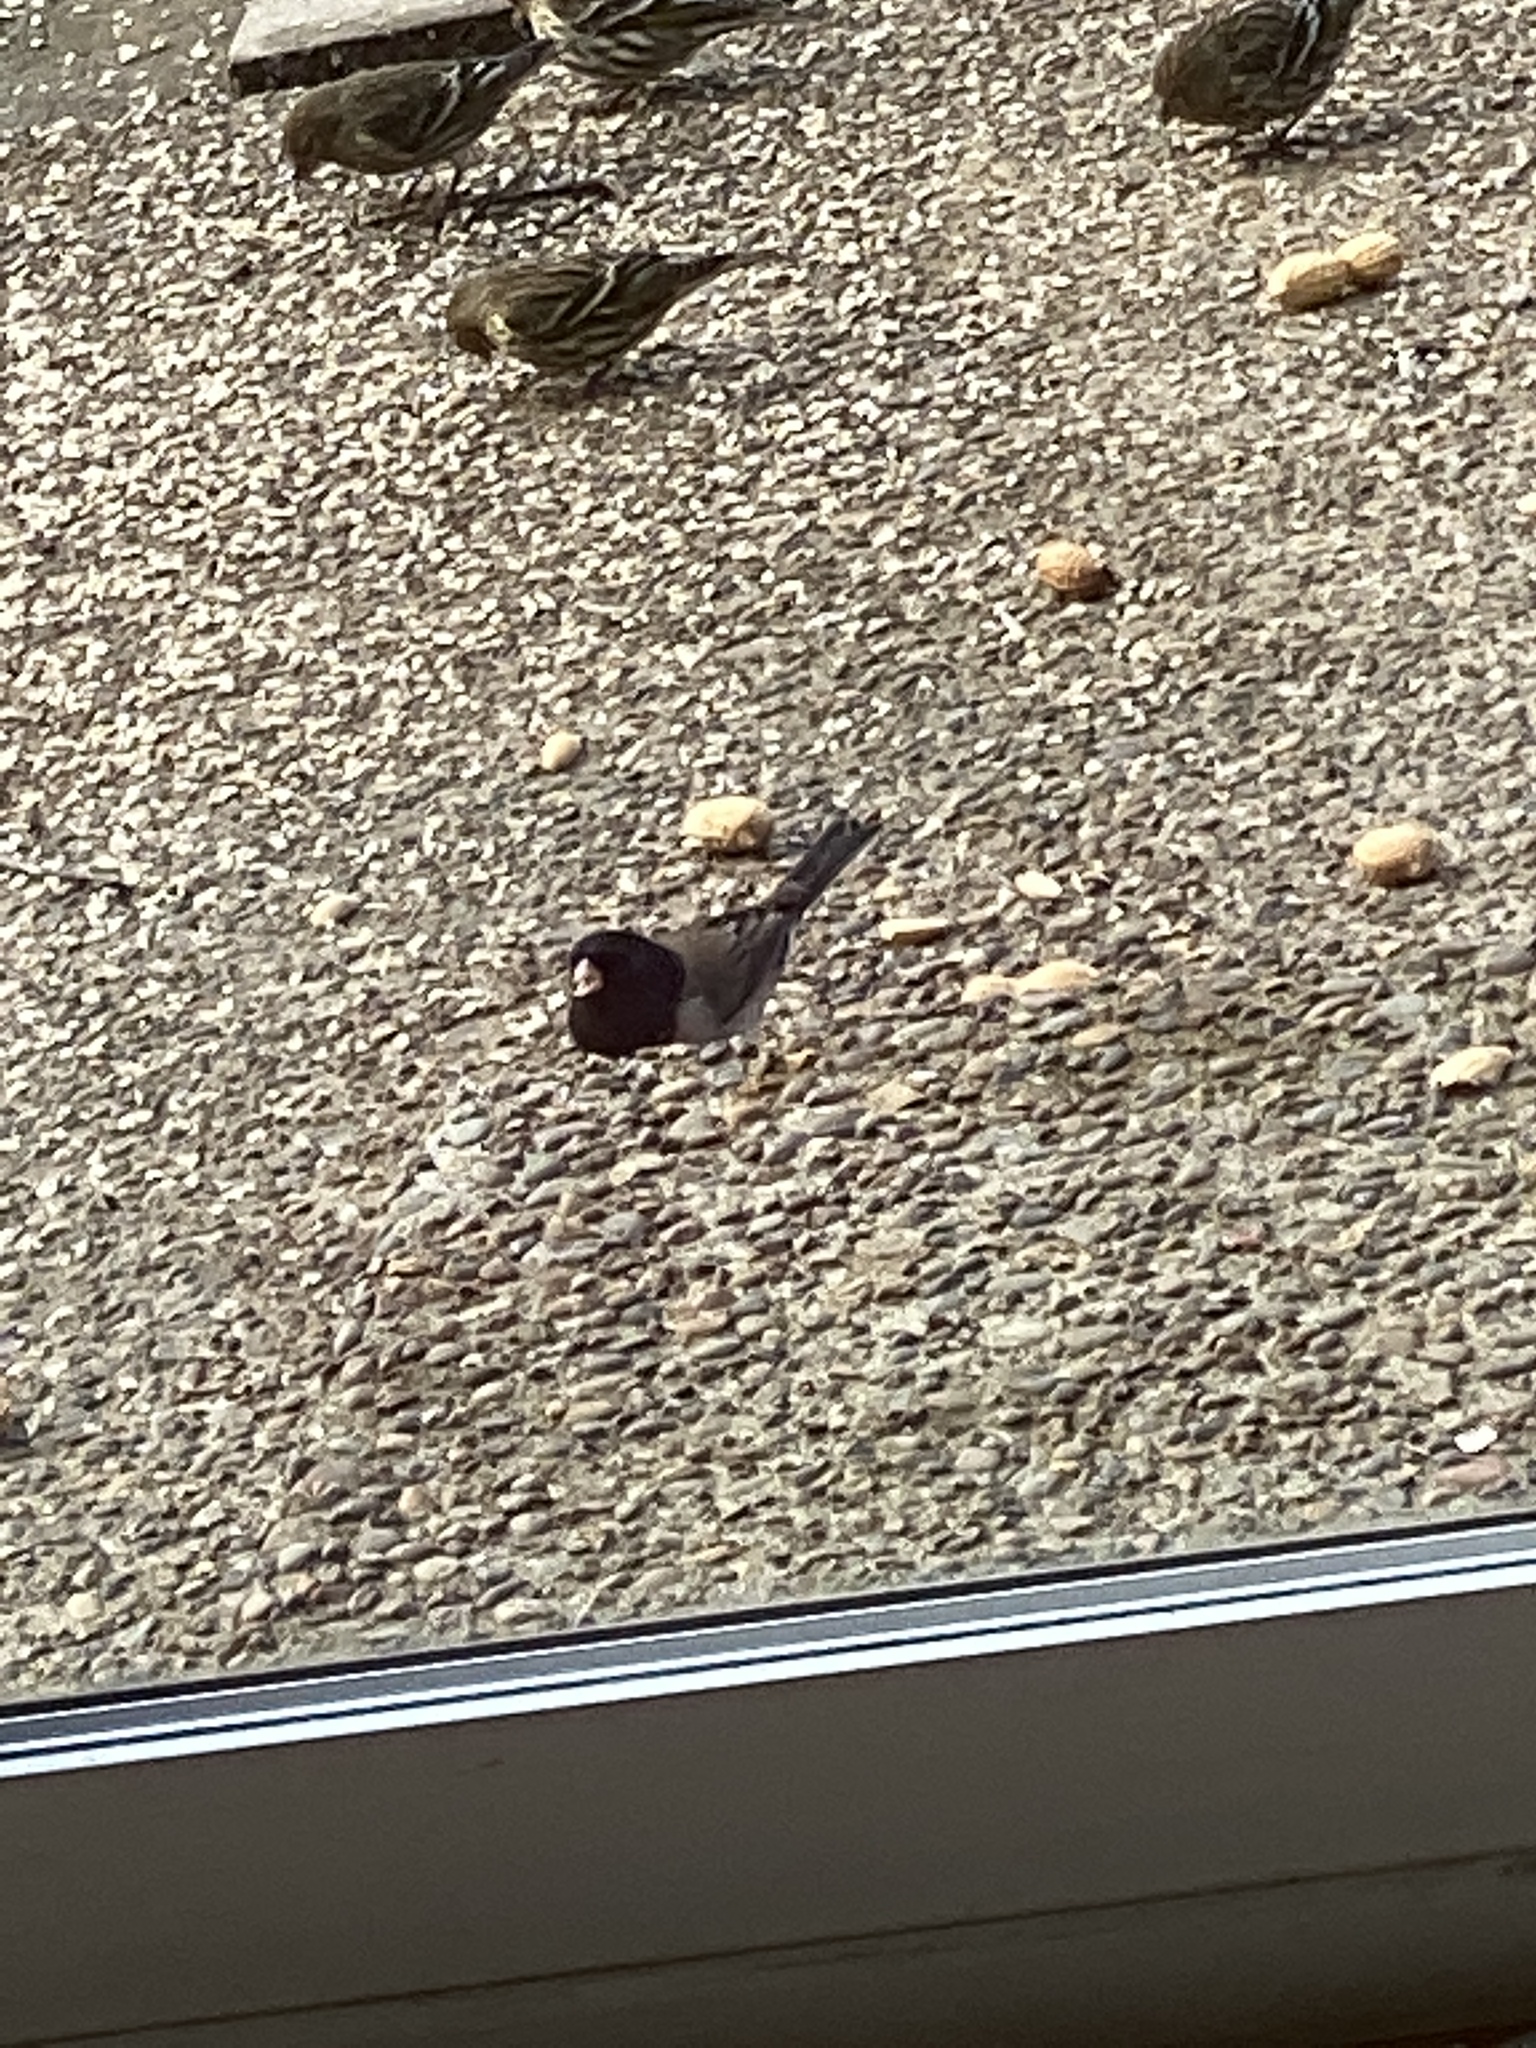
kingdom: Animalia
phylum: Chordata
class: Aves
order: Passeriformes
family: Passerellidae
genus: Junco
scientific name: Junco hyemalis
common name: Dark-eyed junco
